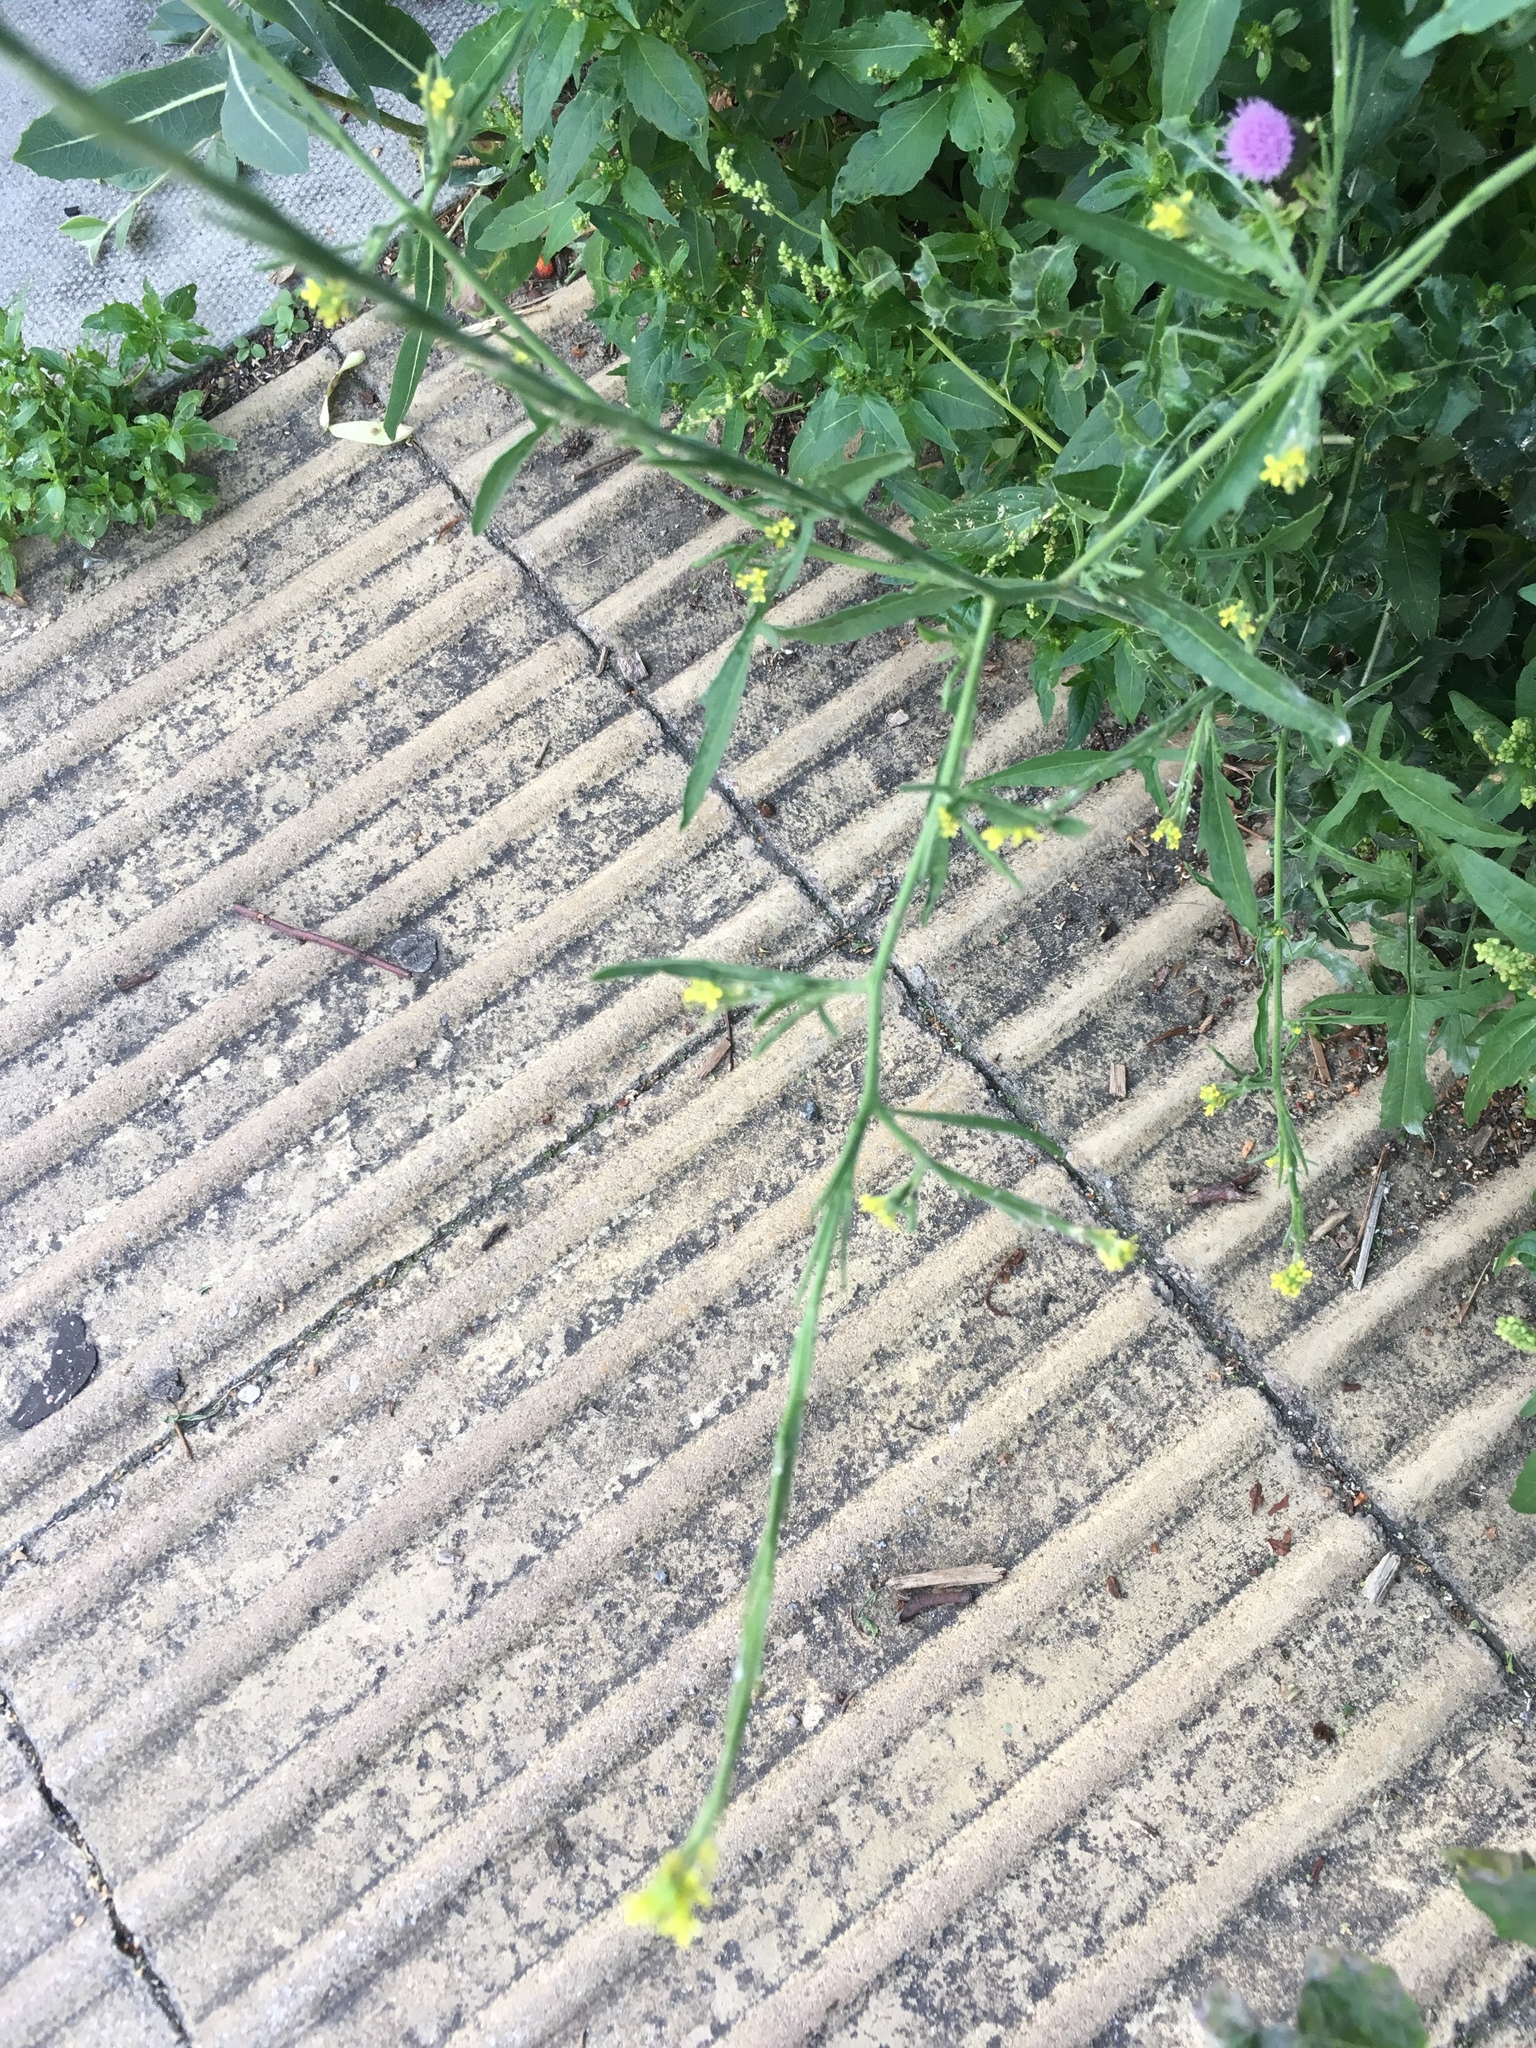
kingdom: Plantae
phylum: Tracheophyta
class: Magnoliopsida
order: Brassicales
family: Brassicaceae
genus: Sisymbrium
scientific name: Sisymbrium officinale
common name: Hedge mustard
